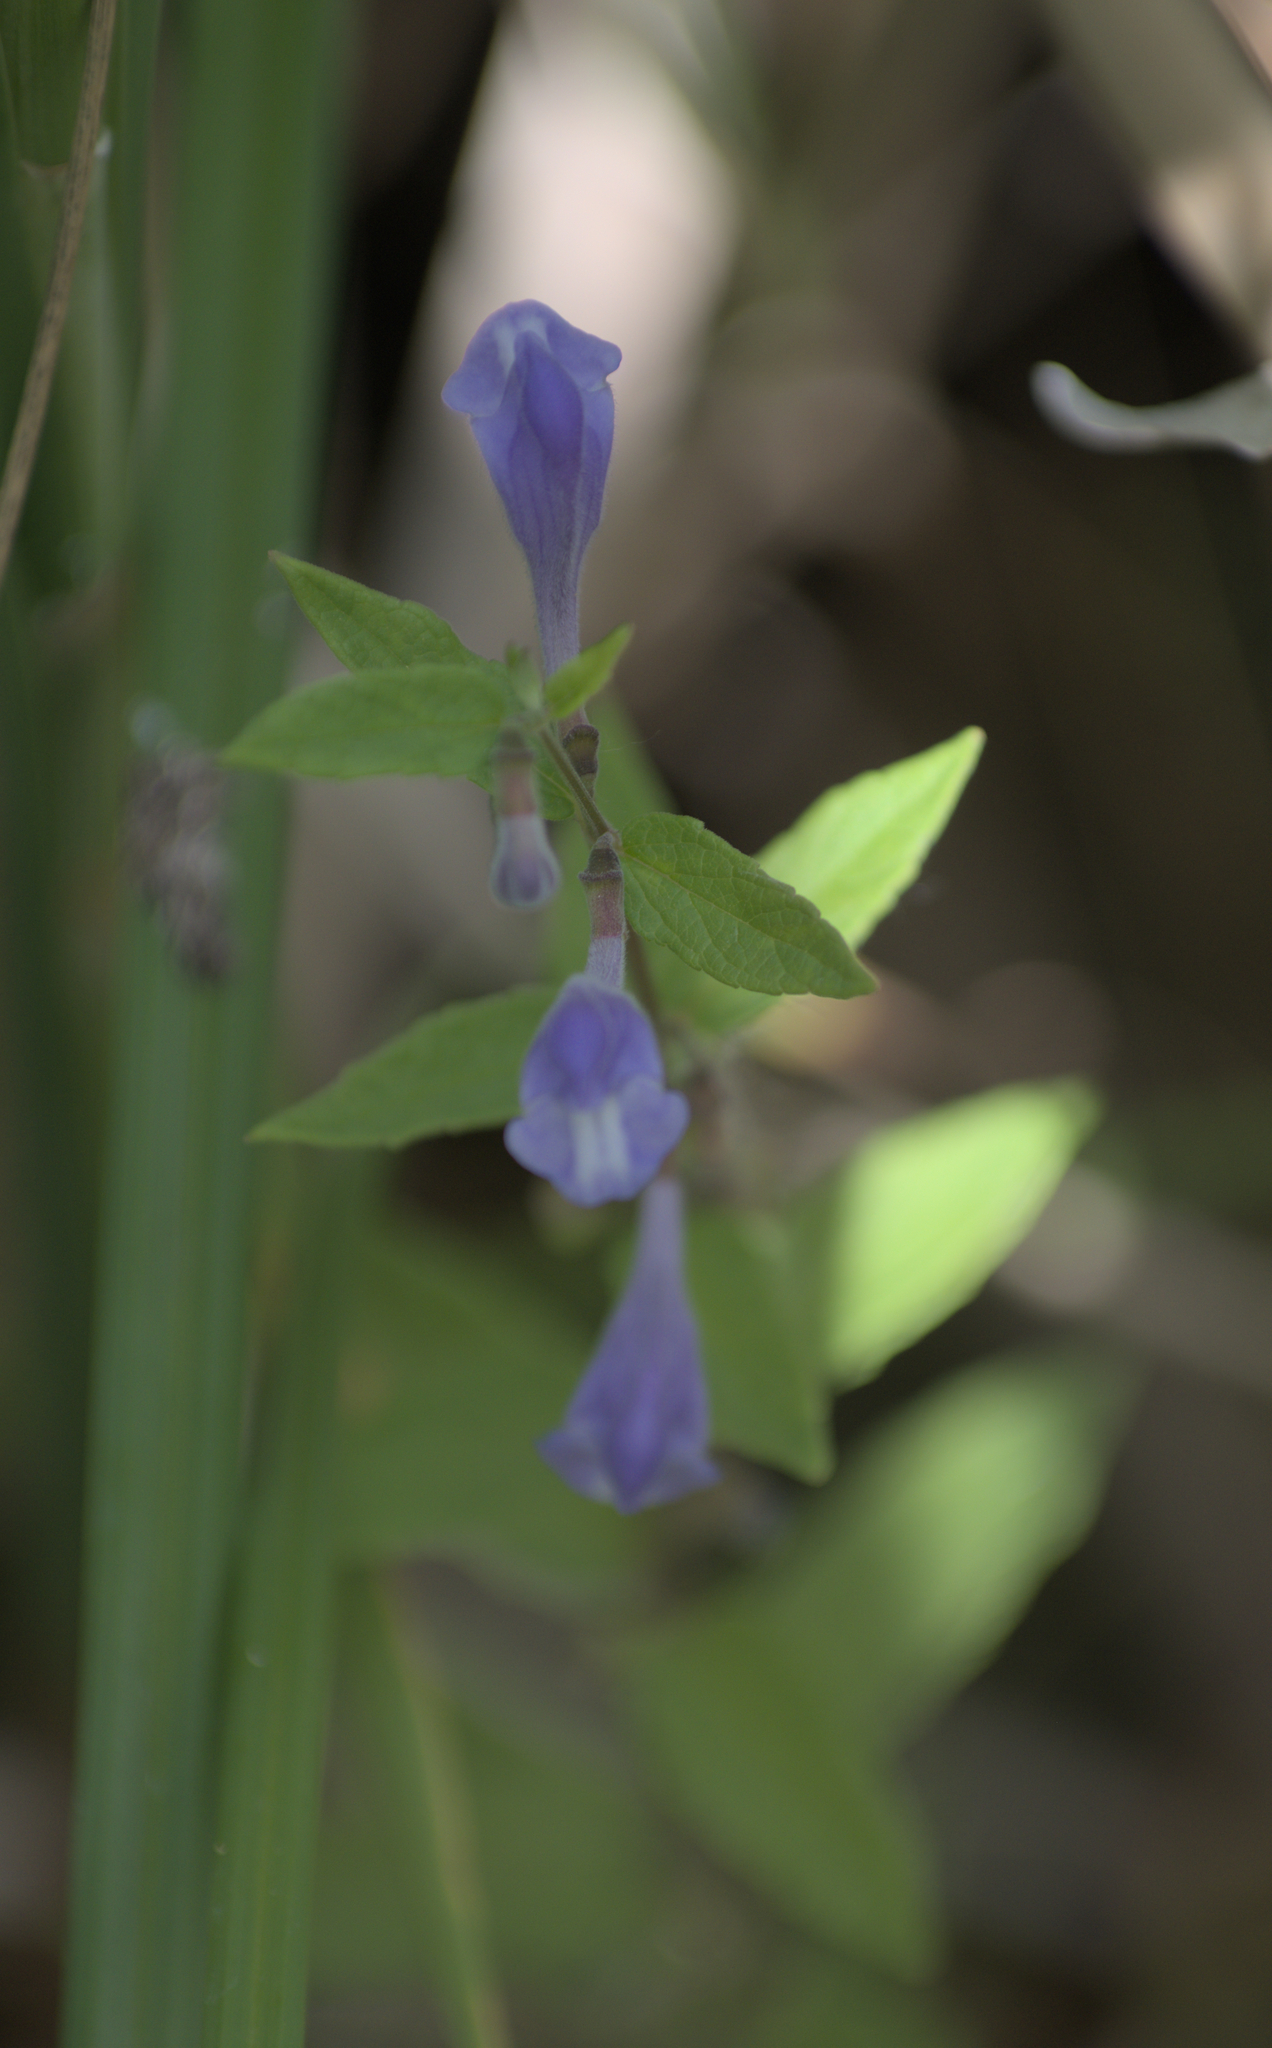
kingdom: Plantae
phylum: Tracheophyta
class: Magnoliopsida
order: Lamiales
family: Lamiaceae
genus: Scutellaria
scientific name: Scutellaria galericulata
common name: Skullcap
